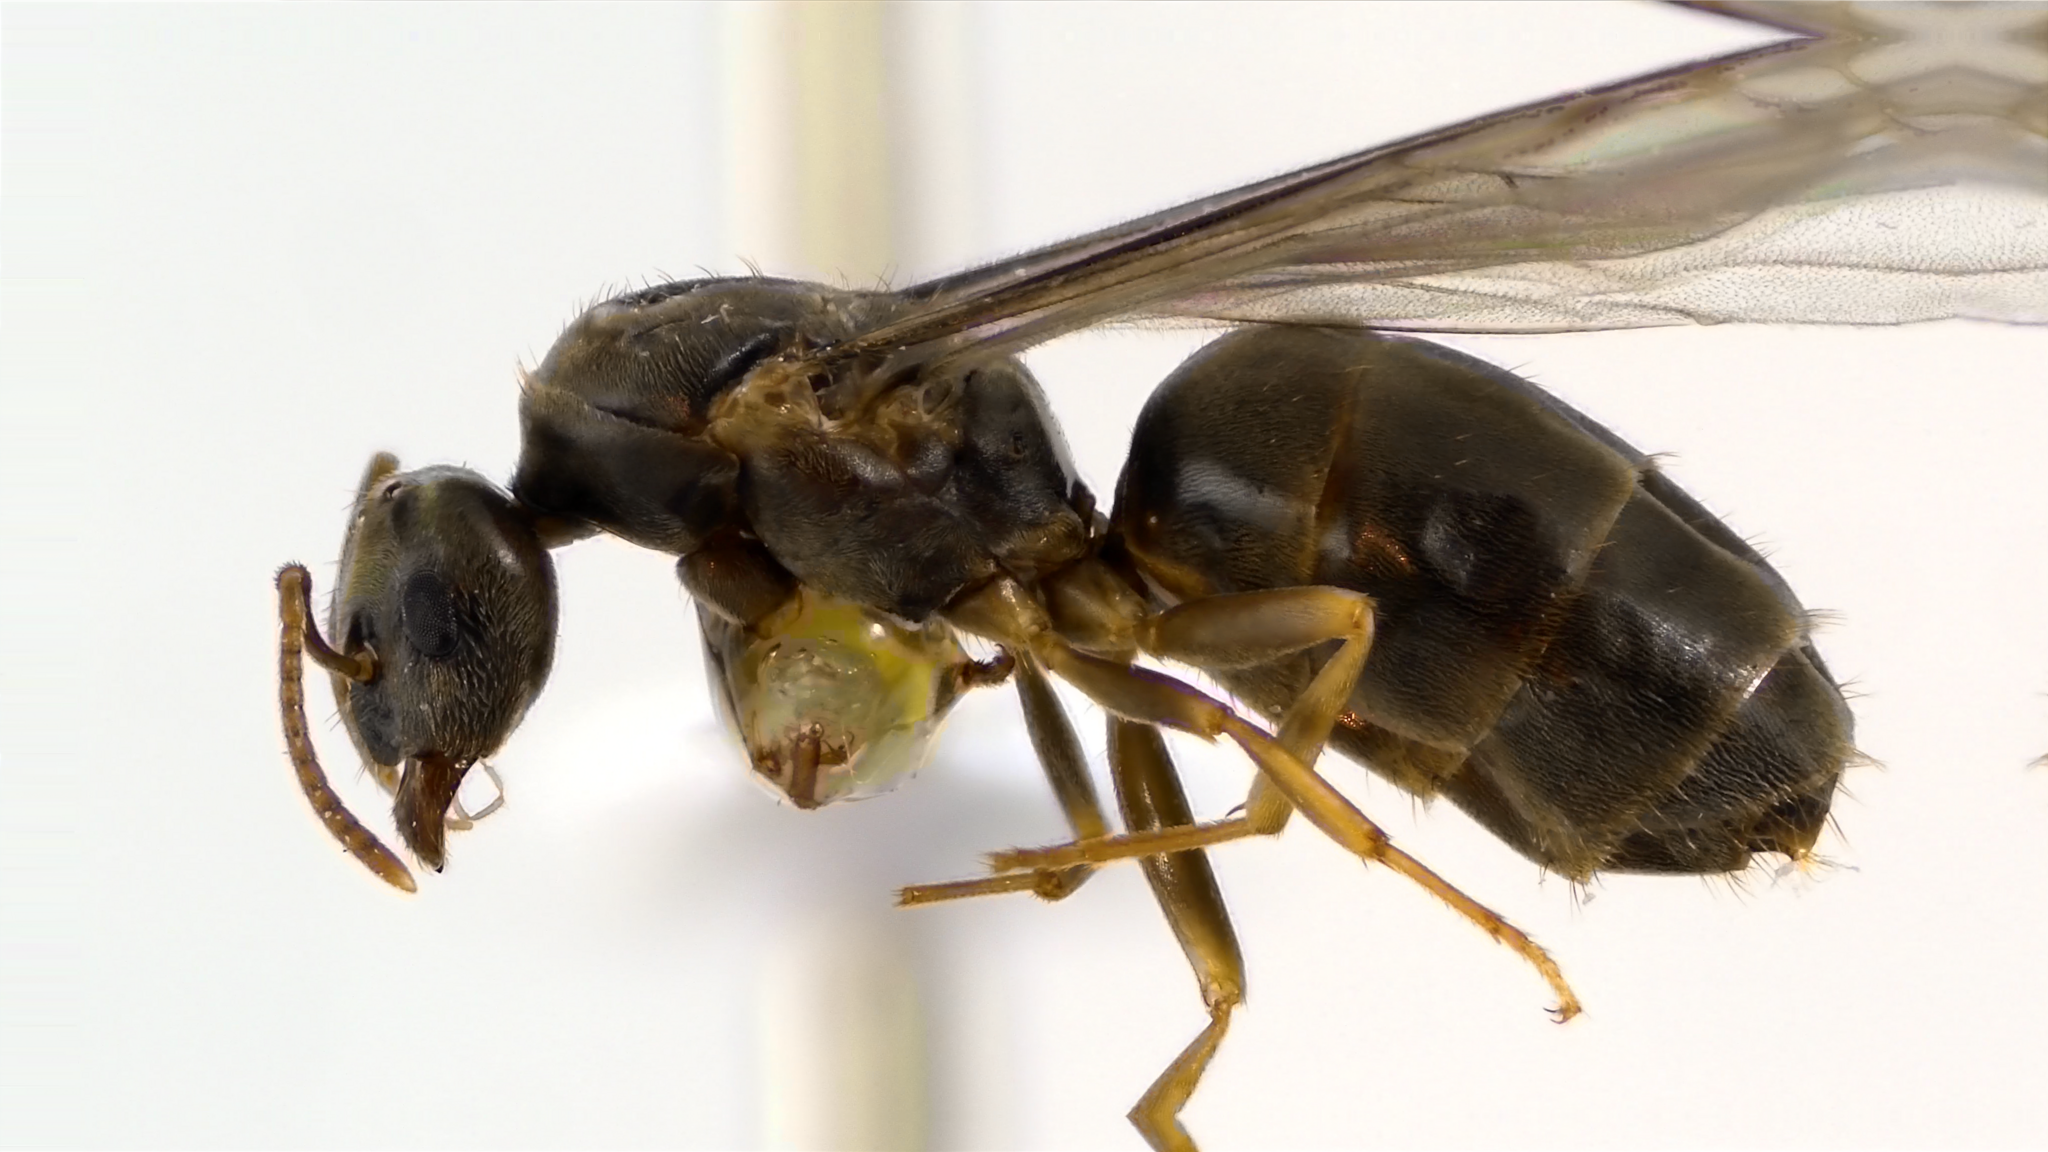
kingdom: Animalia
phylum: Arthropoda
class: Insecta
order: Hymenoptera
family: Formicidae
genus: Lasius
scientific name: Lasius americanus
